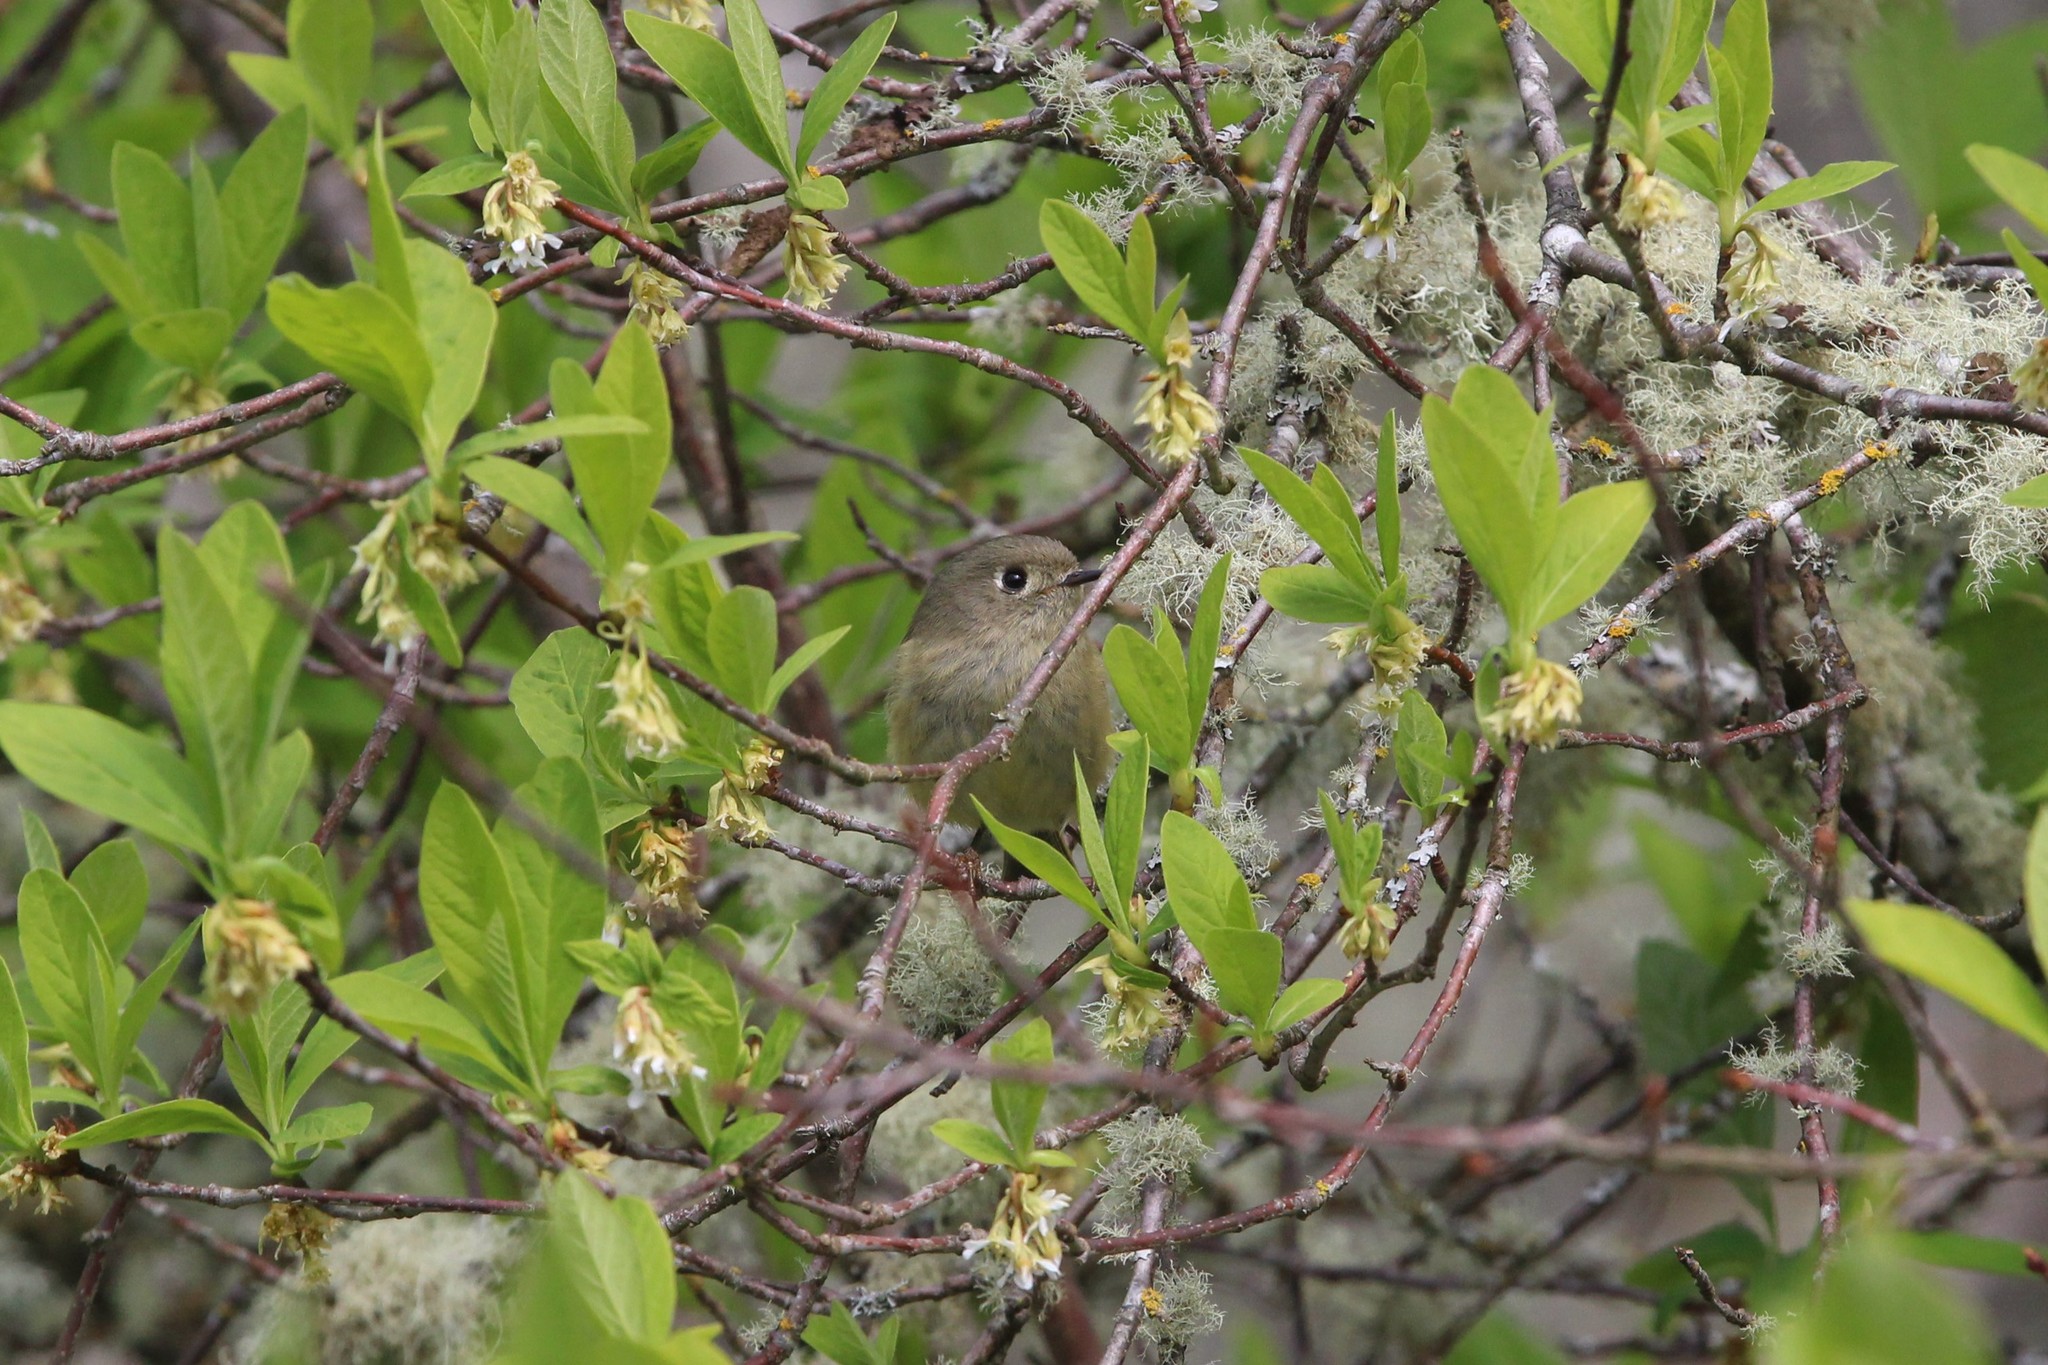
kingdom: Animalia
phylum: Chordata
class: Aves
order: Passeriformes
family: Regulidae
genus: Regulus
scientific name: Regulus calendula
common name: Ruby-crowned kinglet
